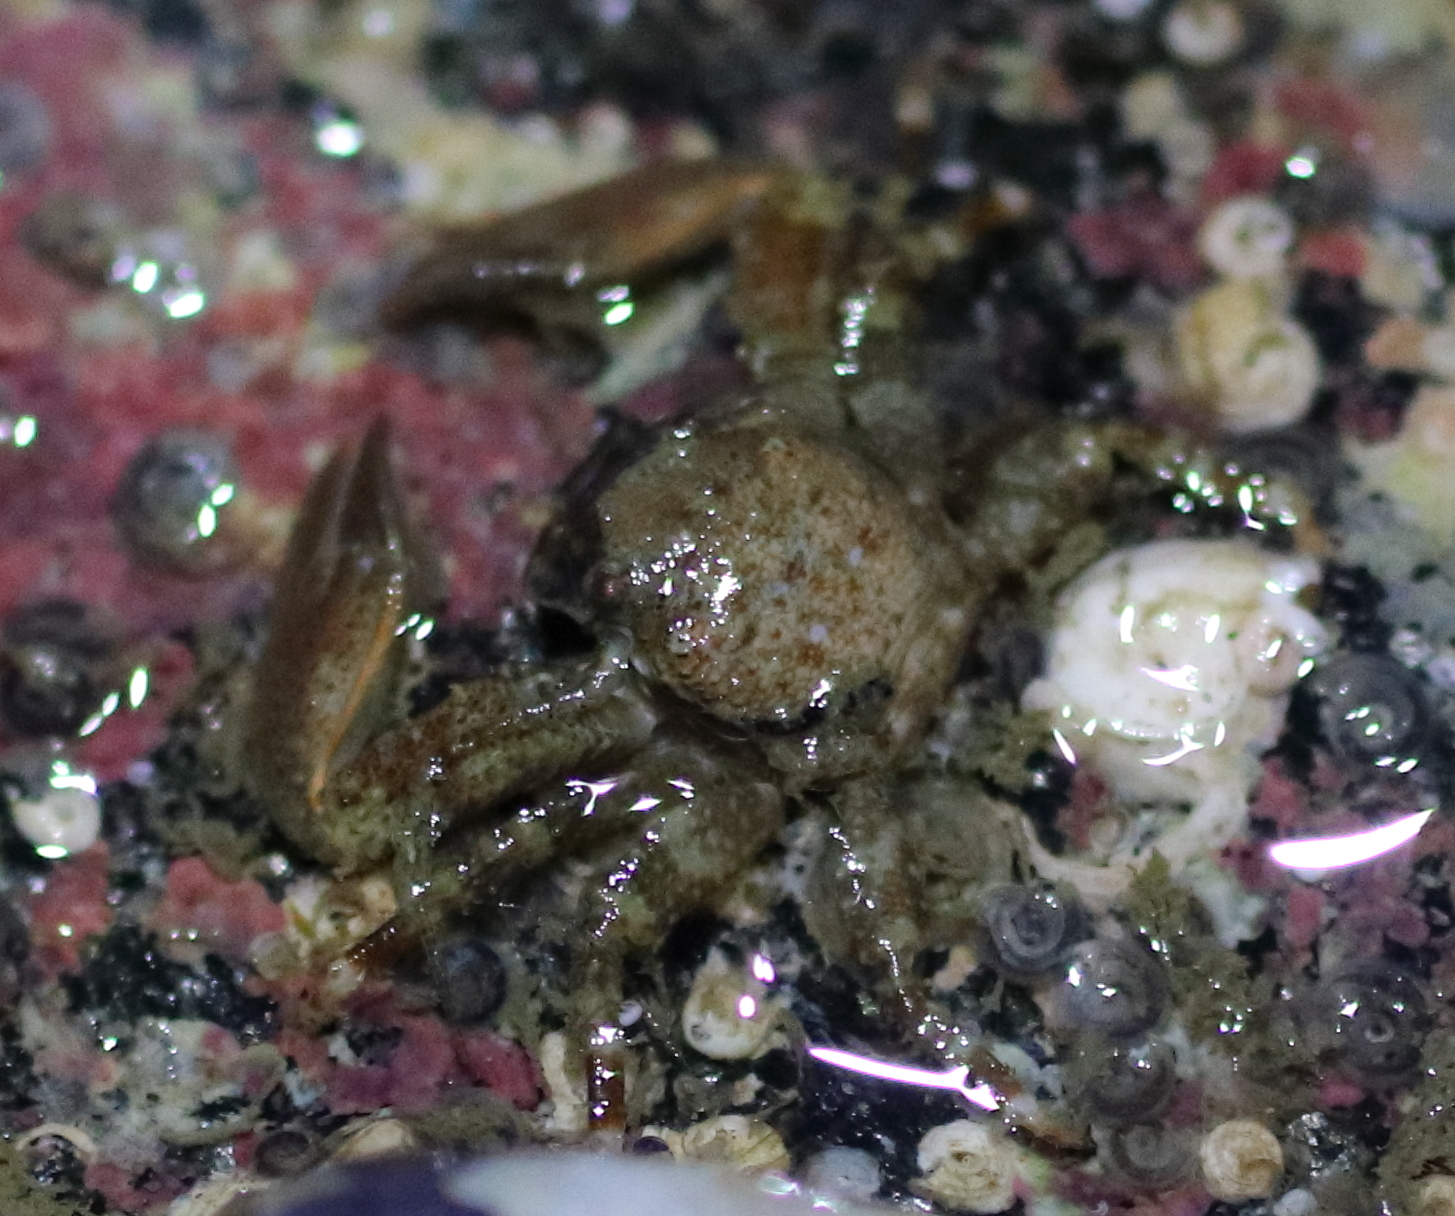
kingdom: Animalia
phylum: Arthropoda
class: Malacostraca
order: Decapoda
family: Porcellanidae
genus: Petrolisthes
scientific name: Petrolisthes eriomerus
